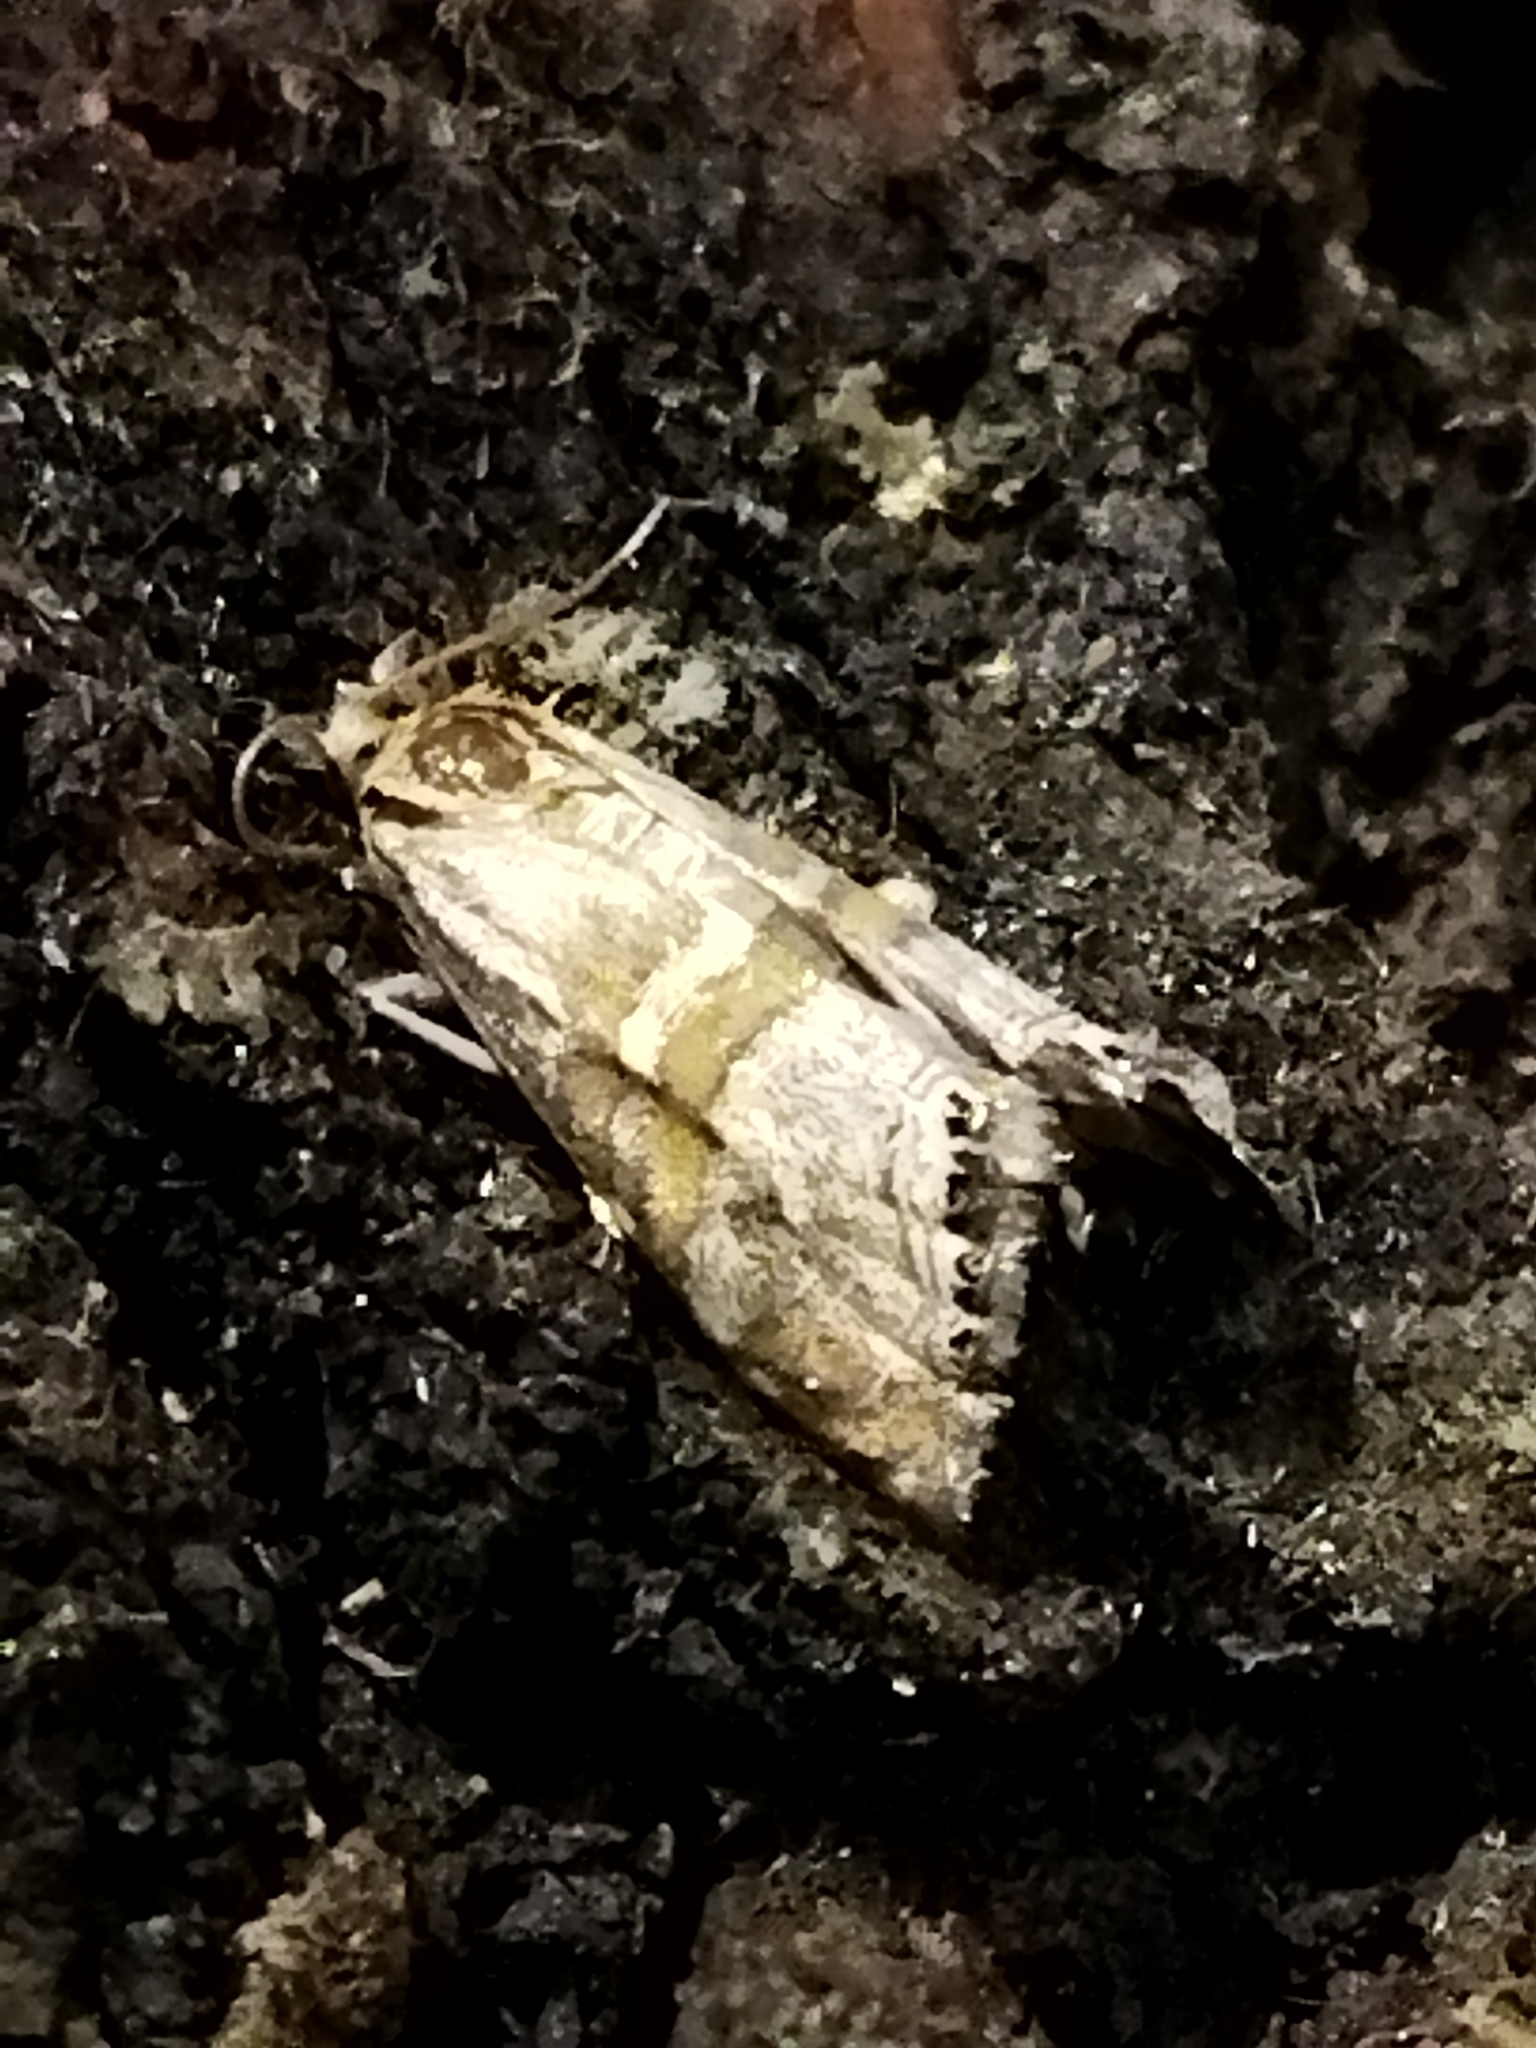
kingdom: Animalia
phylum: Arthropoda
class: Insecta
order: Lepidoptera
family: Crambidae
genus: Euchromius
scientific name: Euchromius bella
